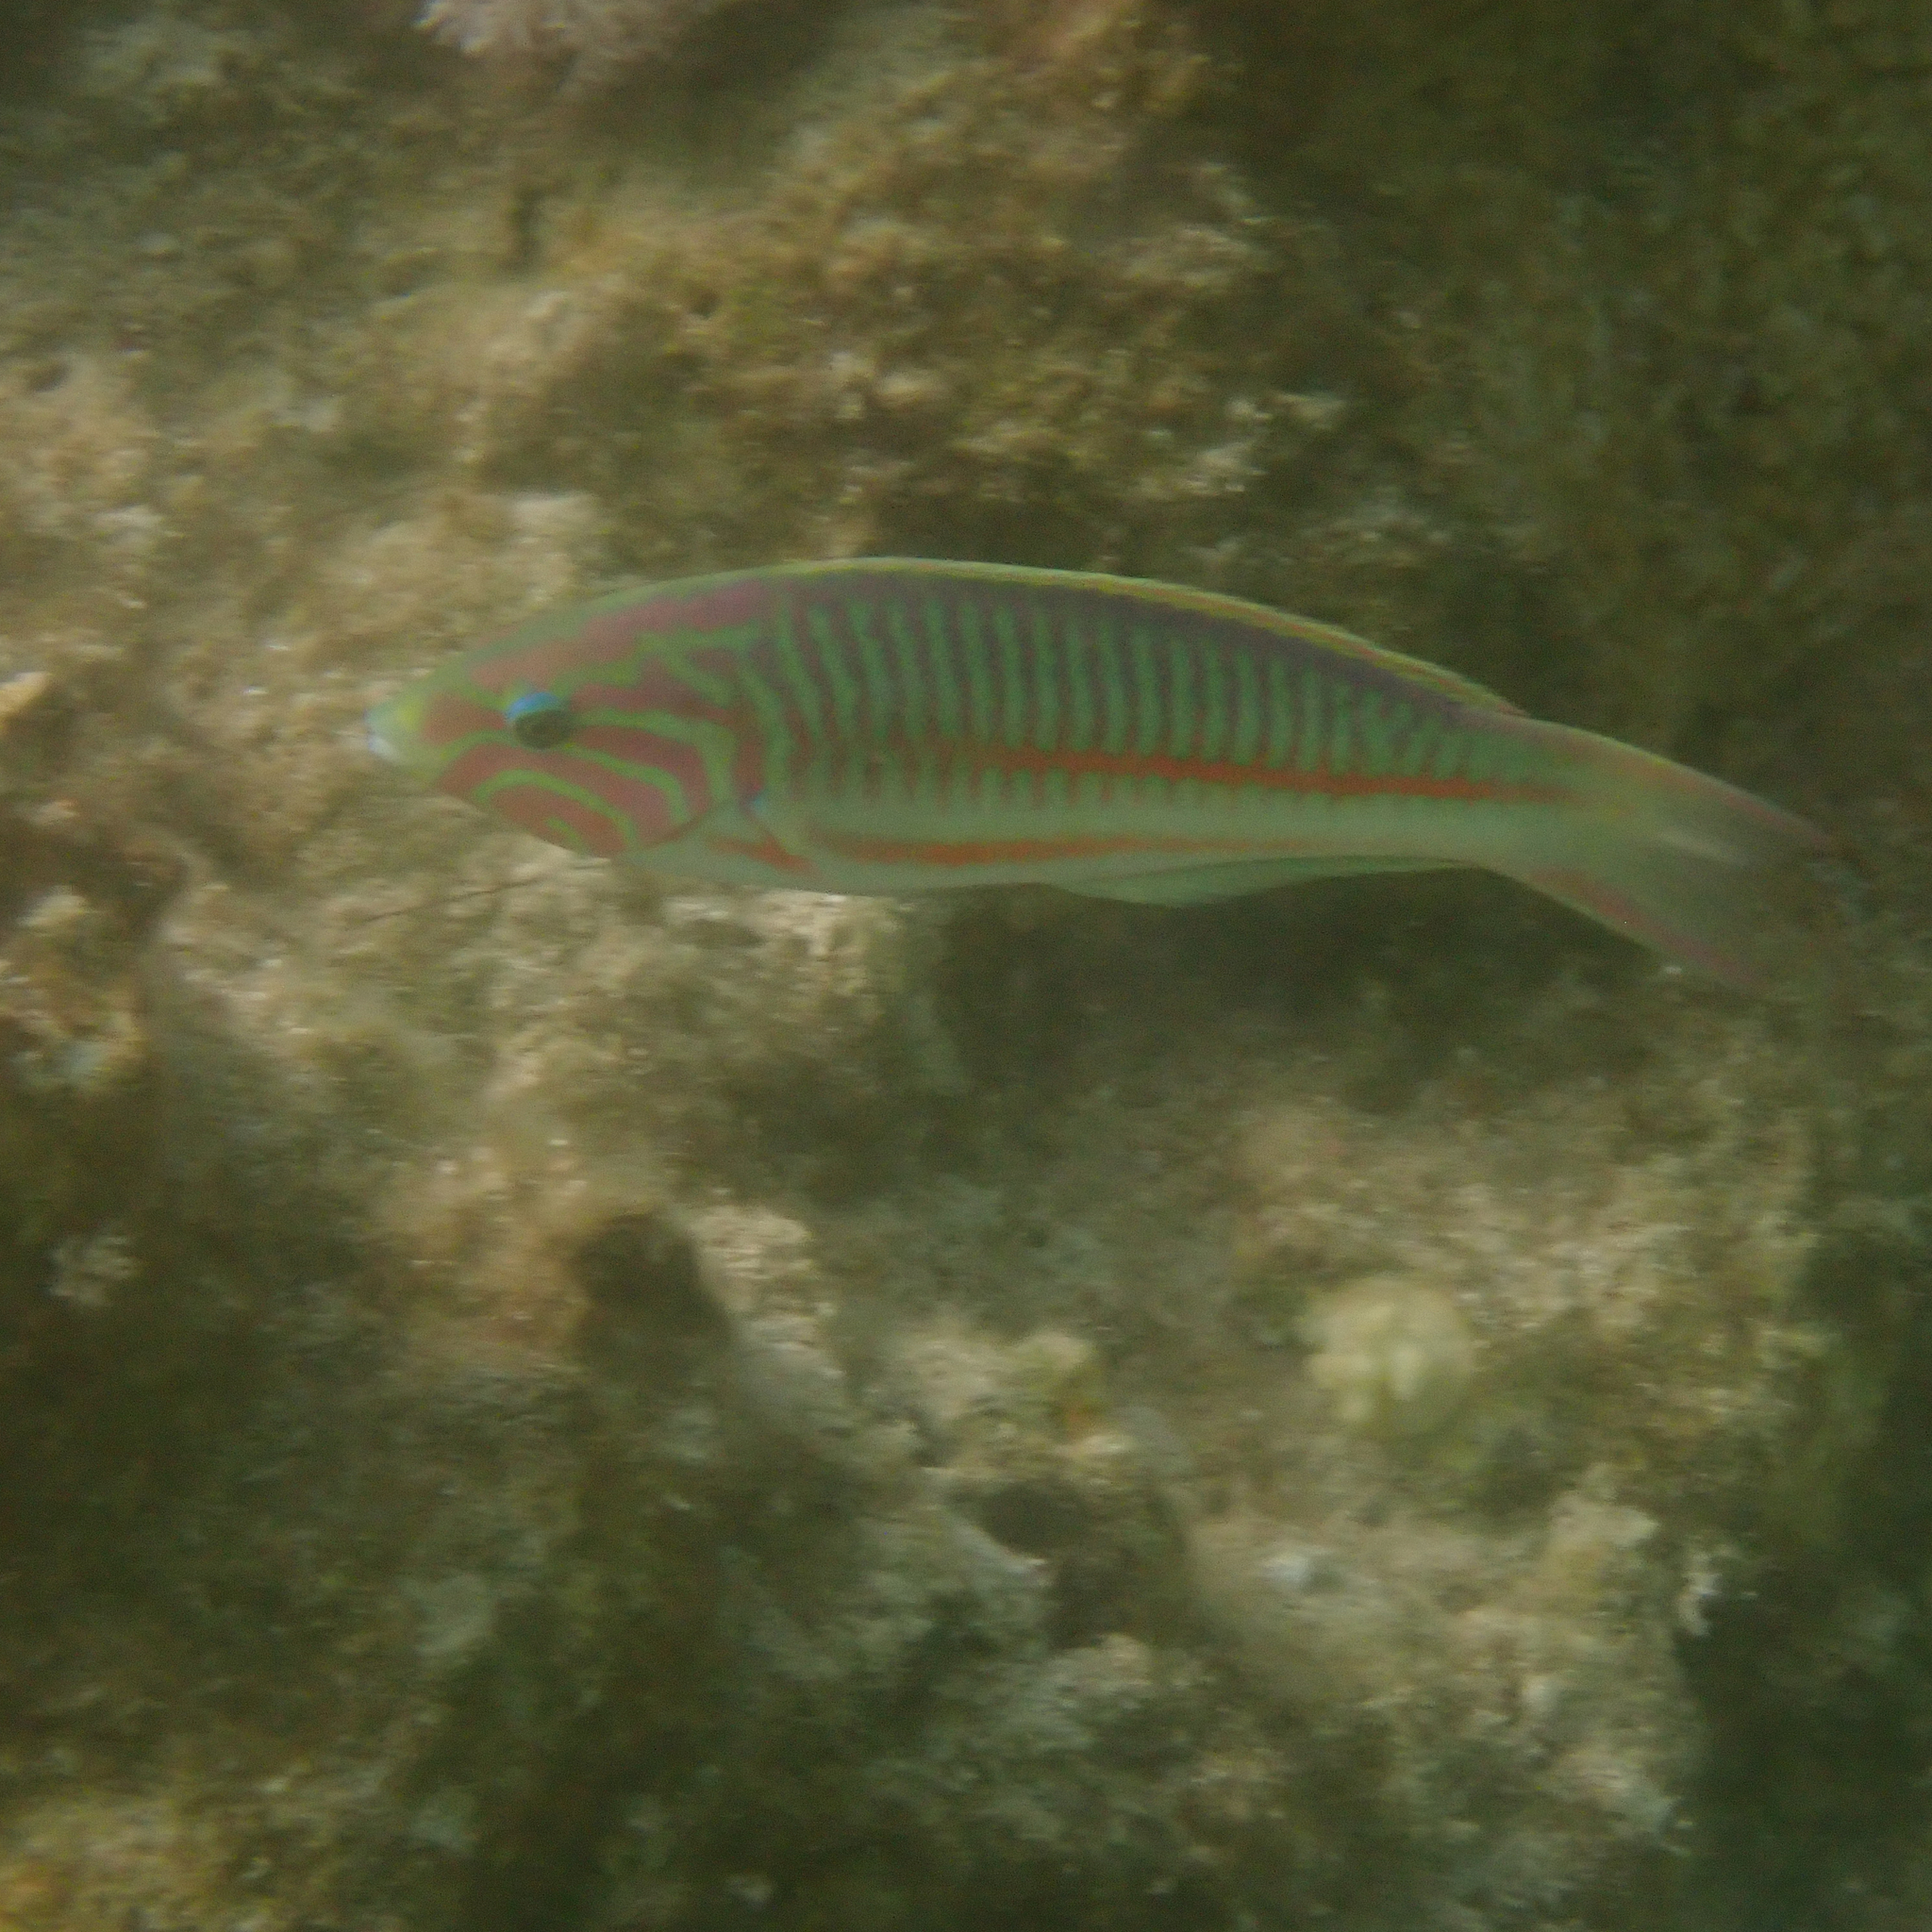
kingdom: Animalia
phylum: Chordata
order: Perciformes
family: Labridae
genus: Thalassoma
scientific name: Thalassoma rueppellii
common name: Klunzinger's wrasse
